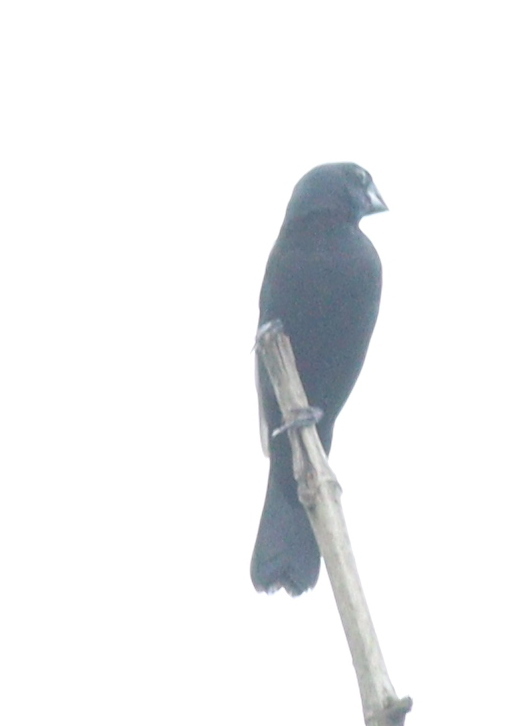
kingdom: Animalia
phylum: Chordata
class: Aves
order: Passeriformes
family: Thraupidae
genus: Sporophila
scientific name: Sporophila funerea
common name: Thick-billed seed-finch
